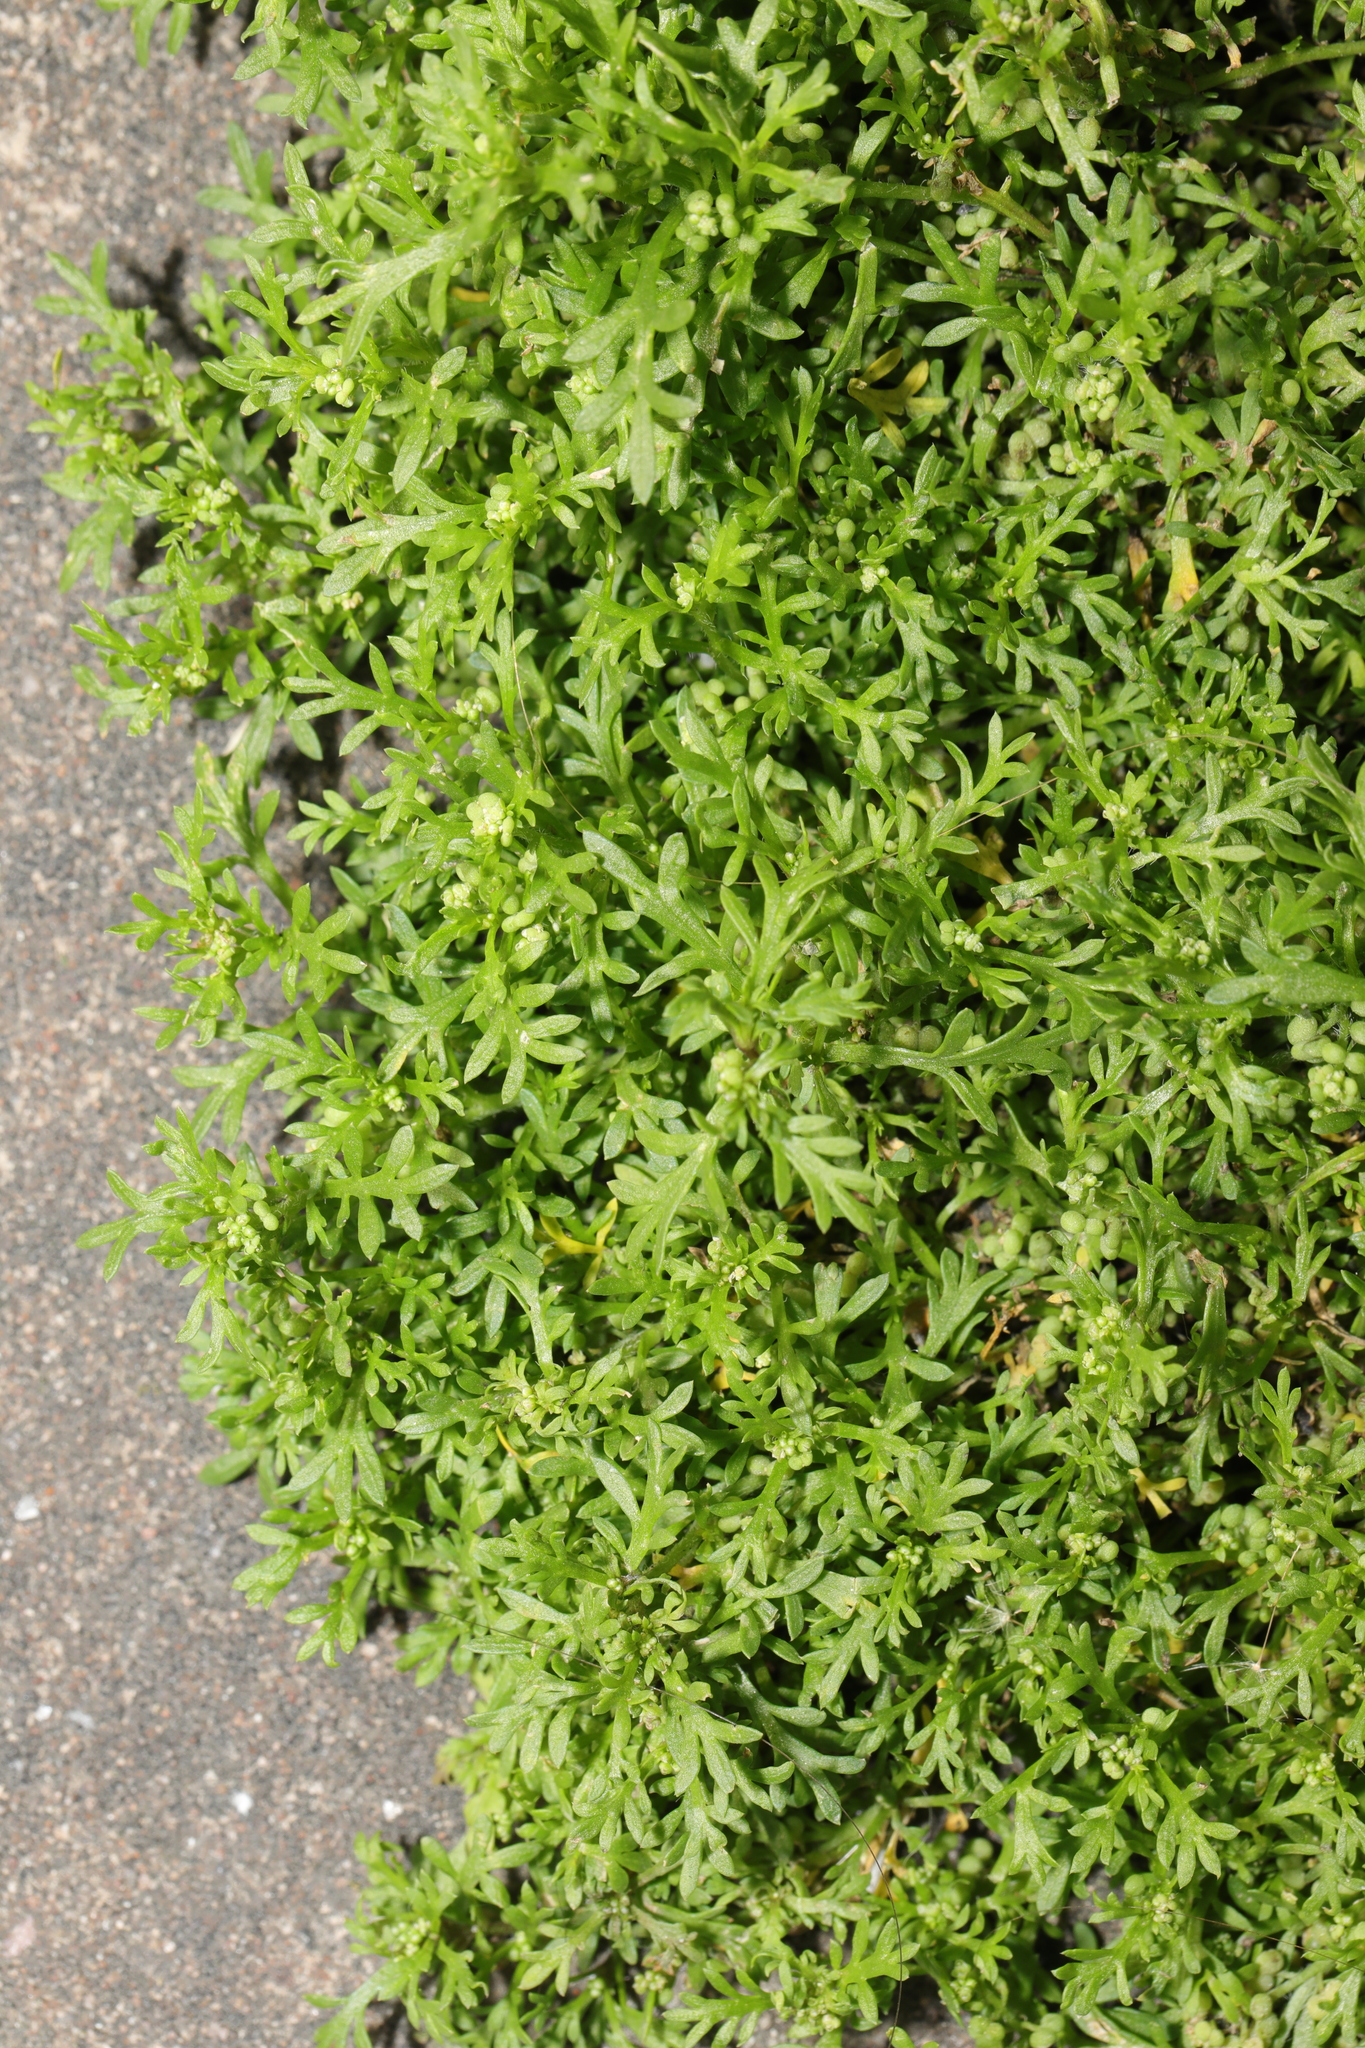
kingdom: Plantae
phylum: Tracheophyta
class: Magnoliopsida
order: Brassicales
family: Brassicaceae
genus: Lepidium
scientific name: Lepidium didymum
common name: Lesser swinecress
